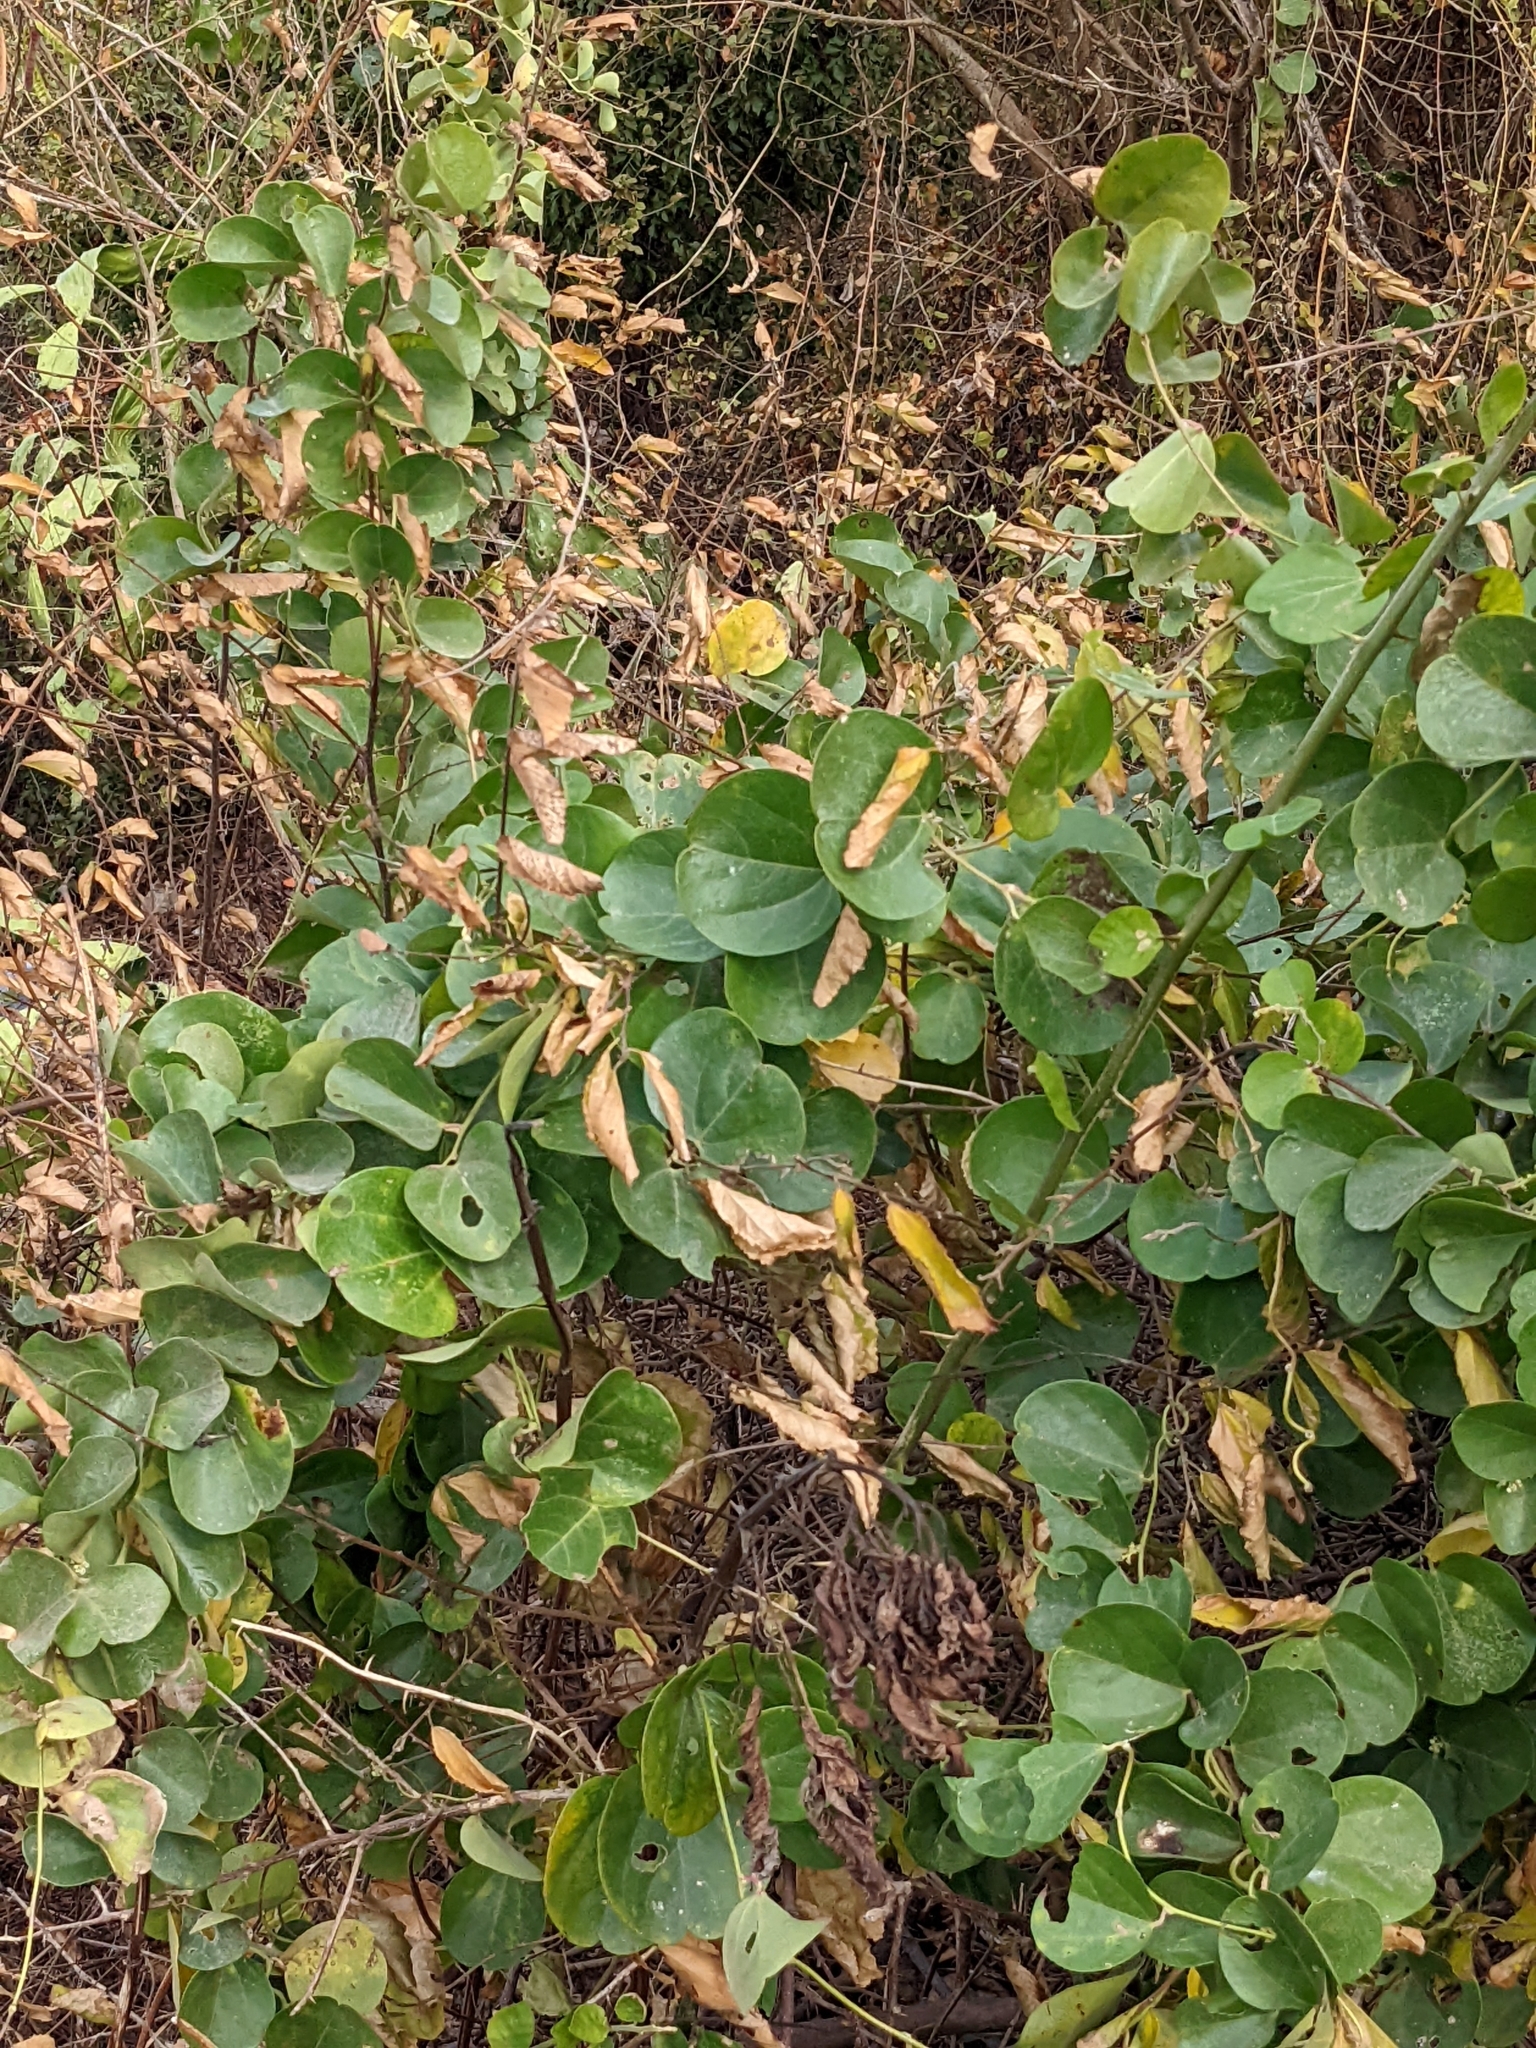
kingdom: Plantae
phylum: Tracheophyta
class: Magnoliopsida
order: Ranunculales
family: Menispermaceae
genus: Cocculus
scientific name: Cocculus orbiculatus
